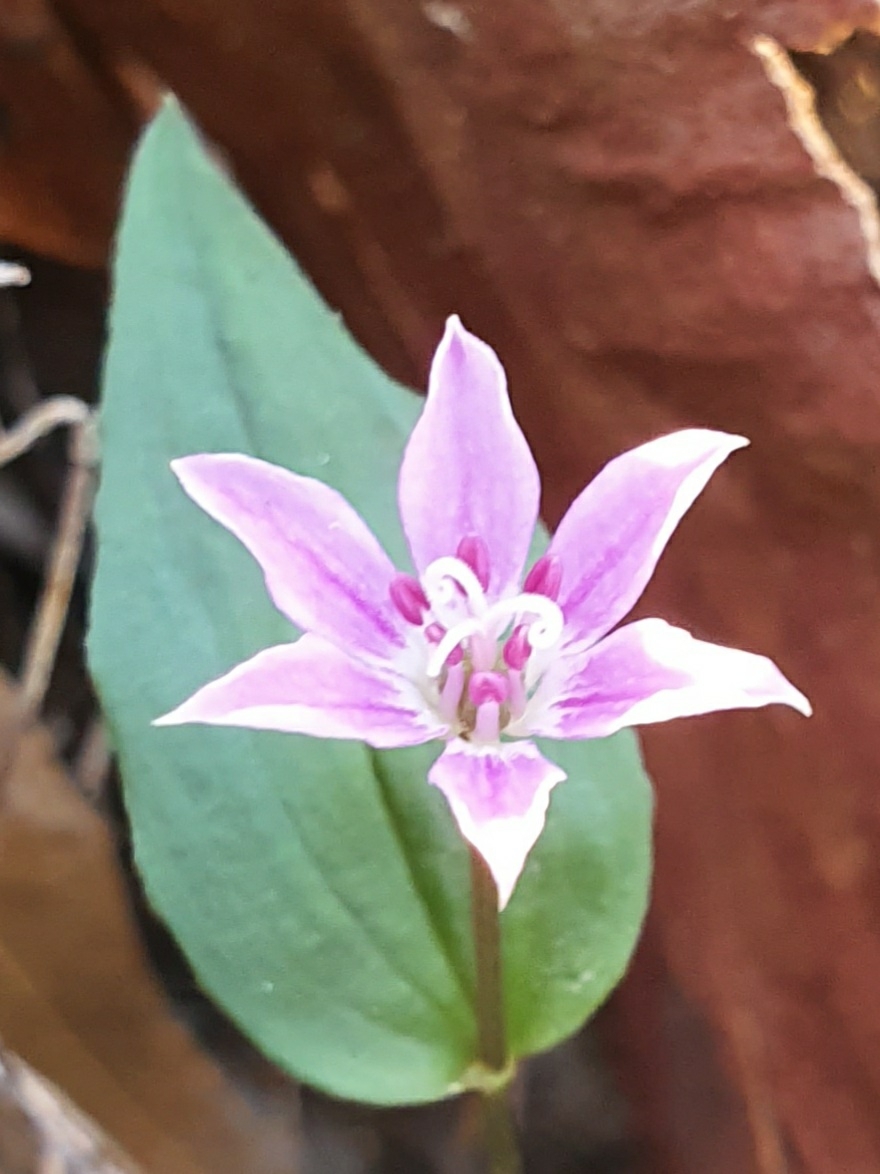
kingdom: Plantae
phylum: Tracheophyta
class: Liliopsida
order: Liliales
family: Colchicaceae
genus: Schelhammera
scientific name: Schelhammera undulata
